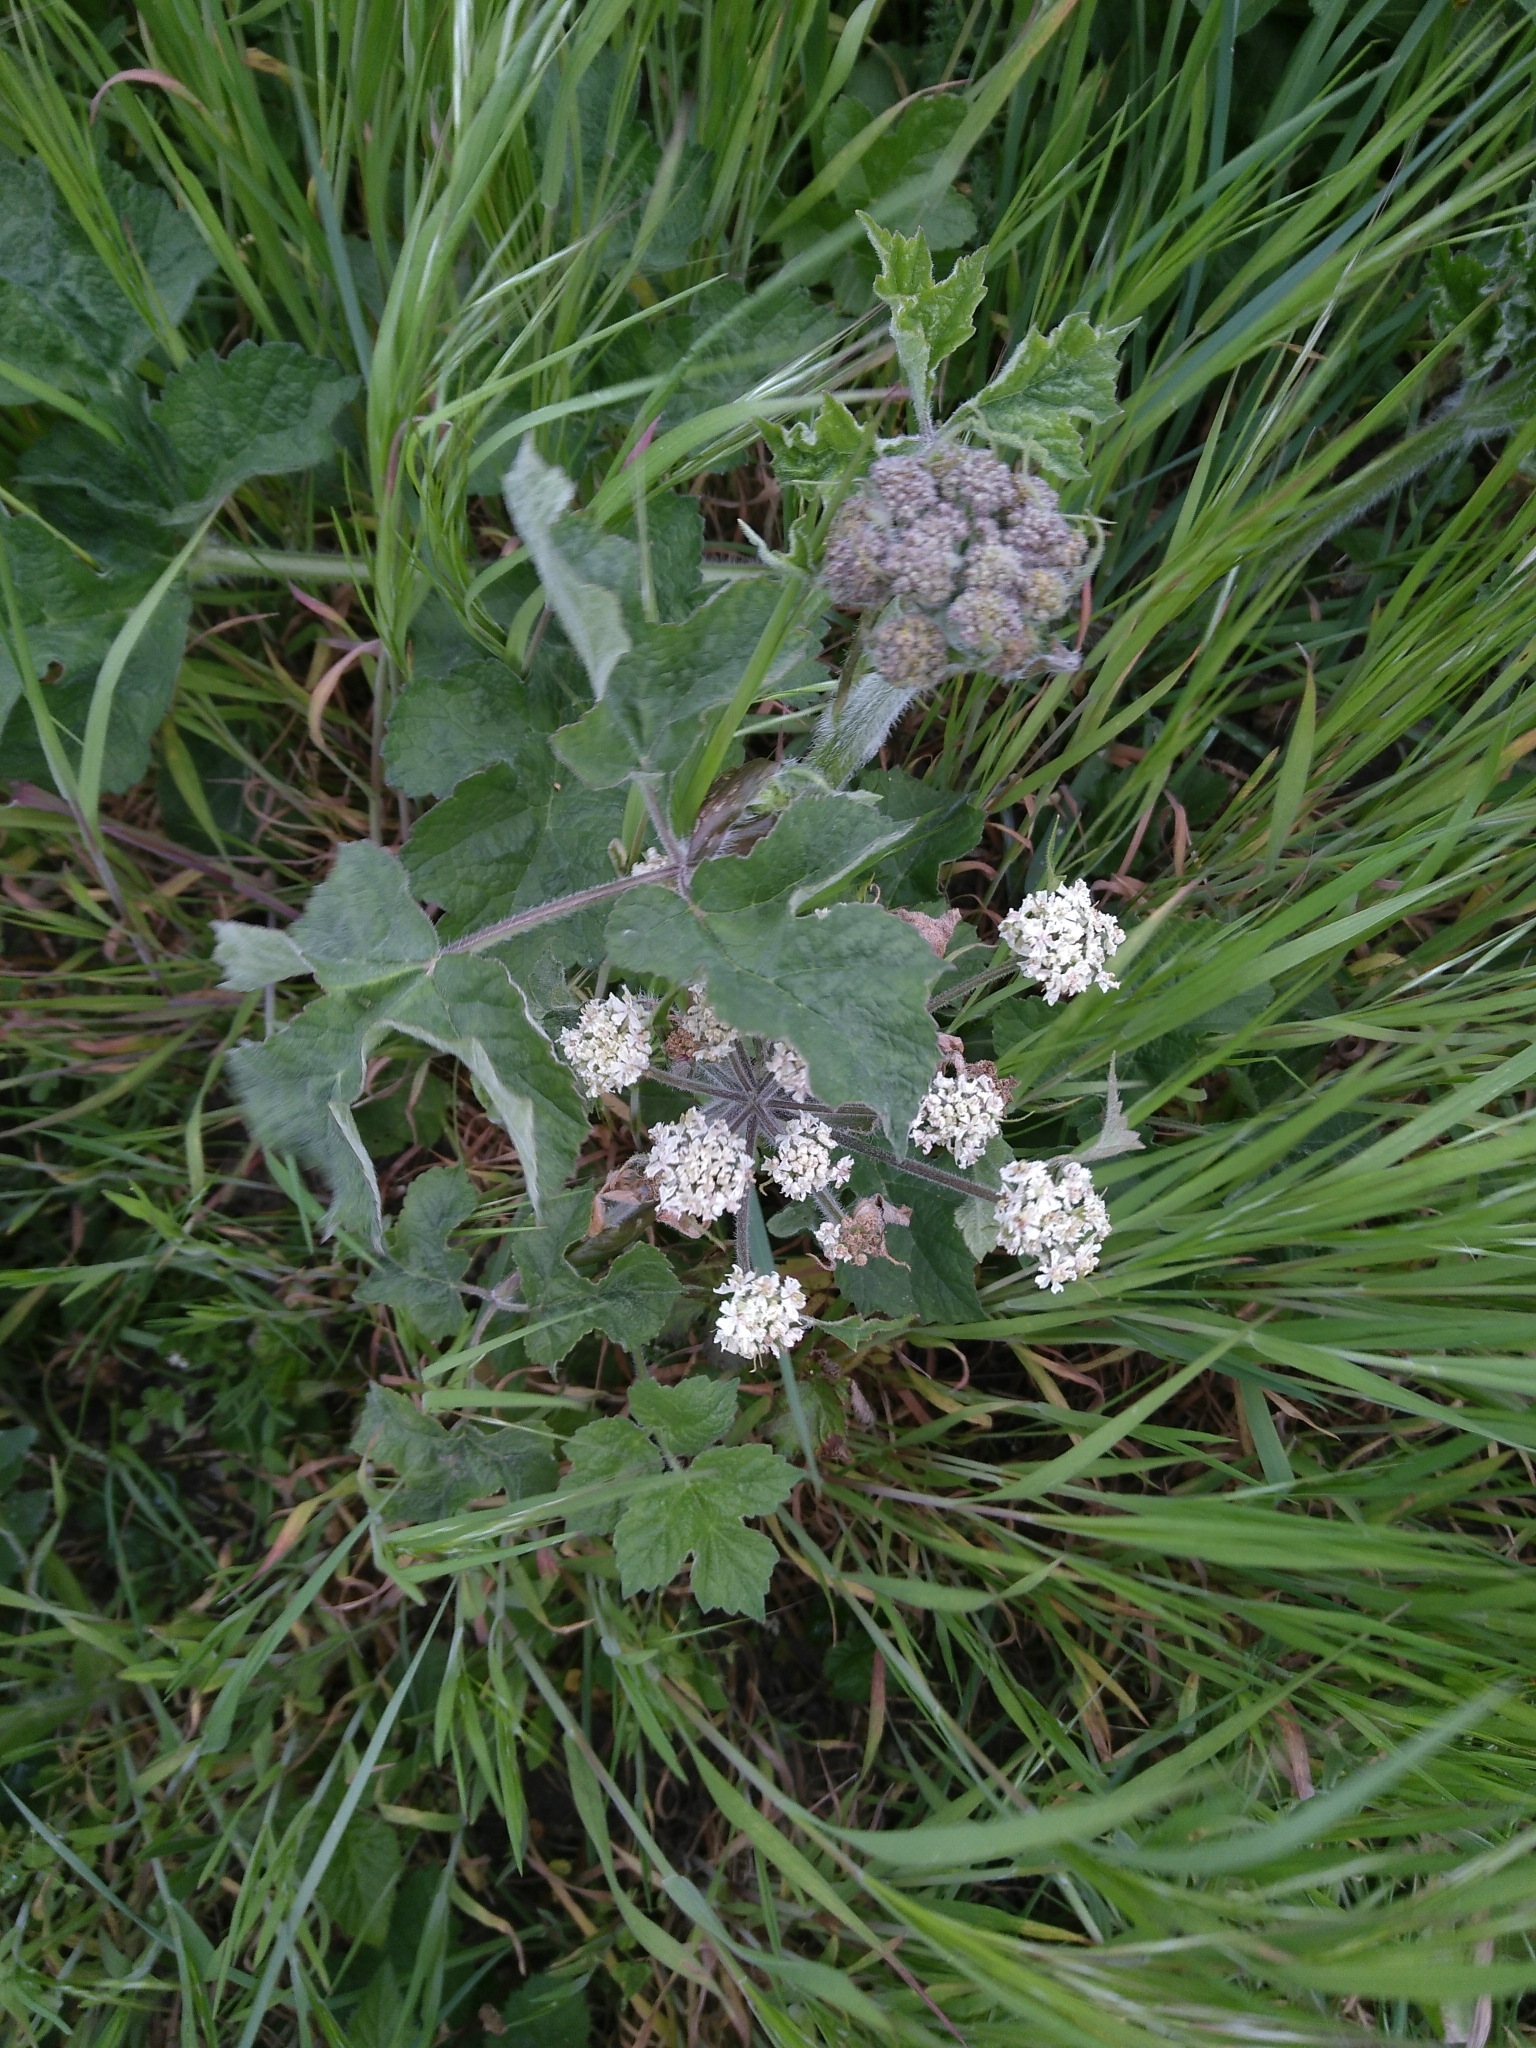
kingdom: Plantae
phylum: Tracheophyta
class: Magnoliopsida
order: Apiales
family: Apiaceae
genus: Heracleum
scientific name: Heracleum sphondylium
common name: Hogweed
